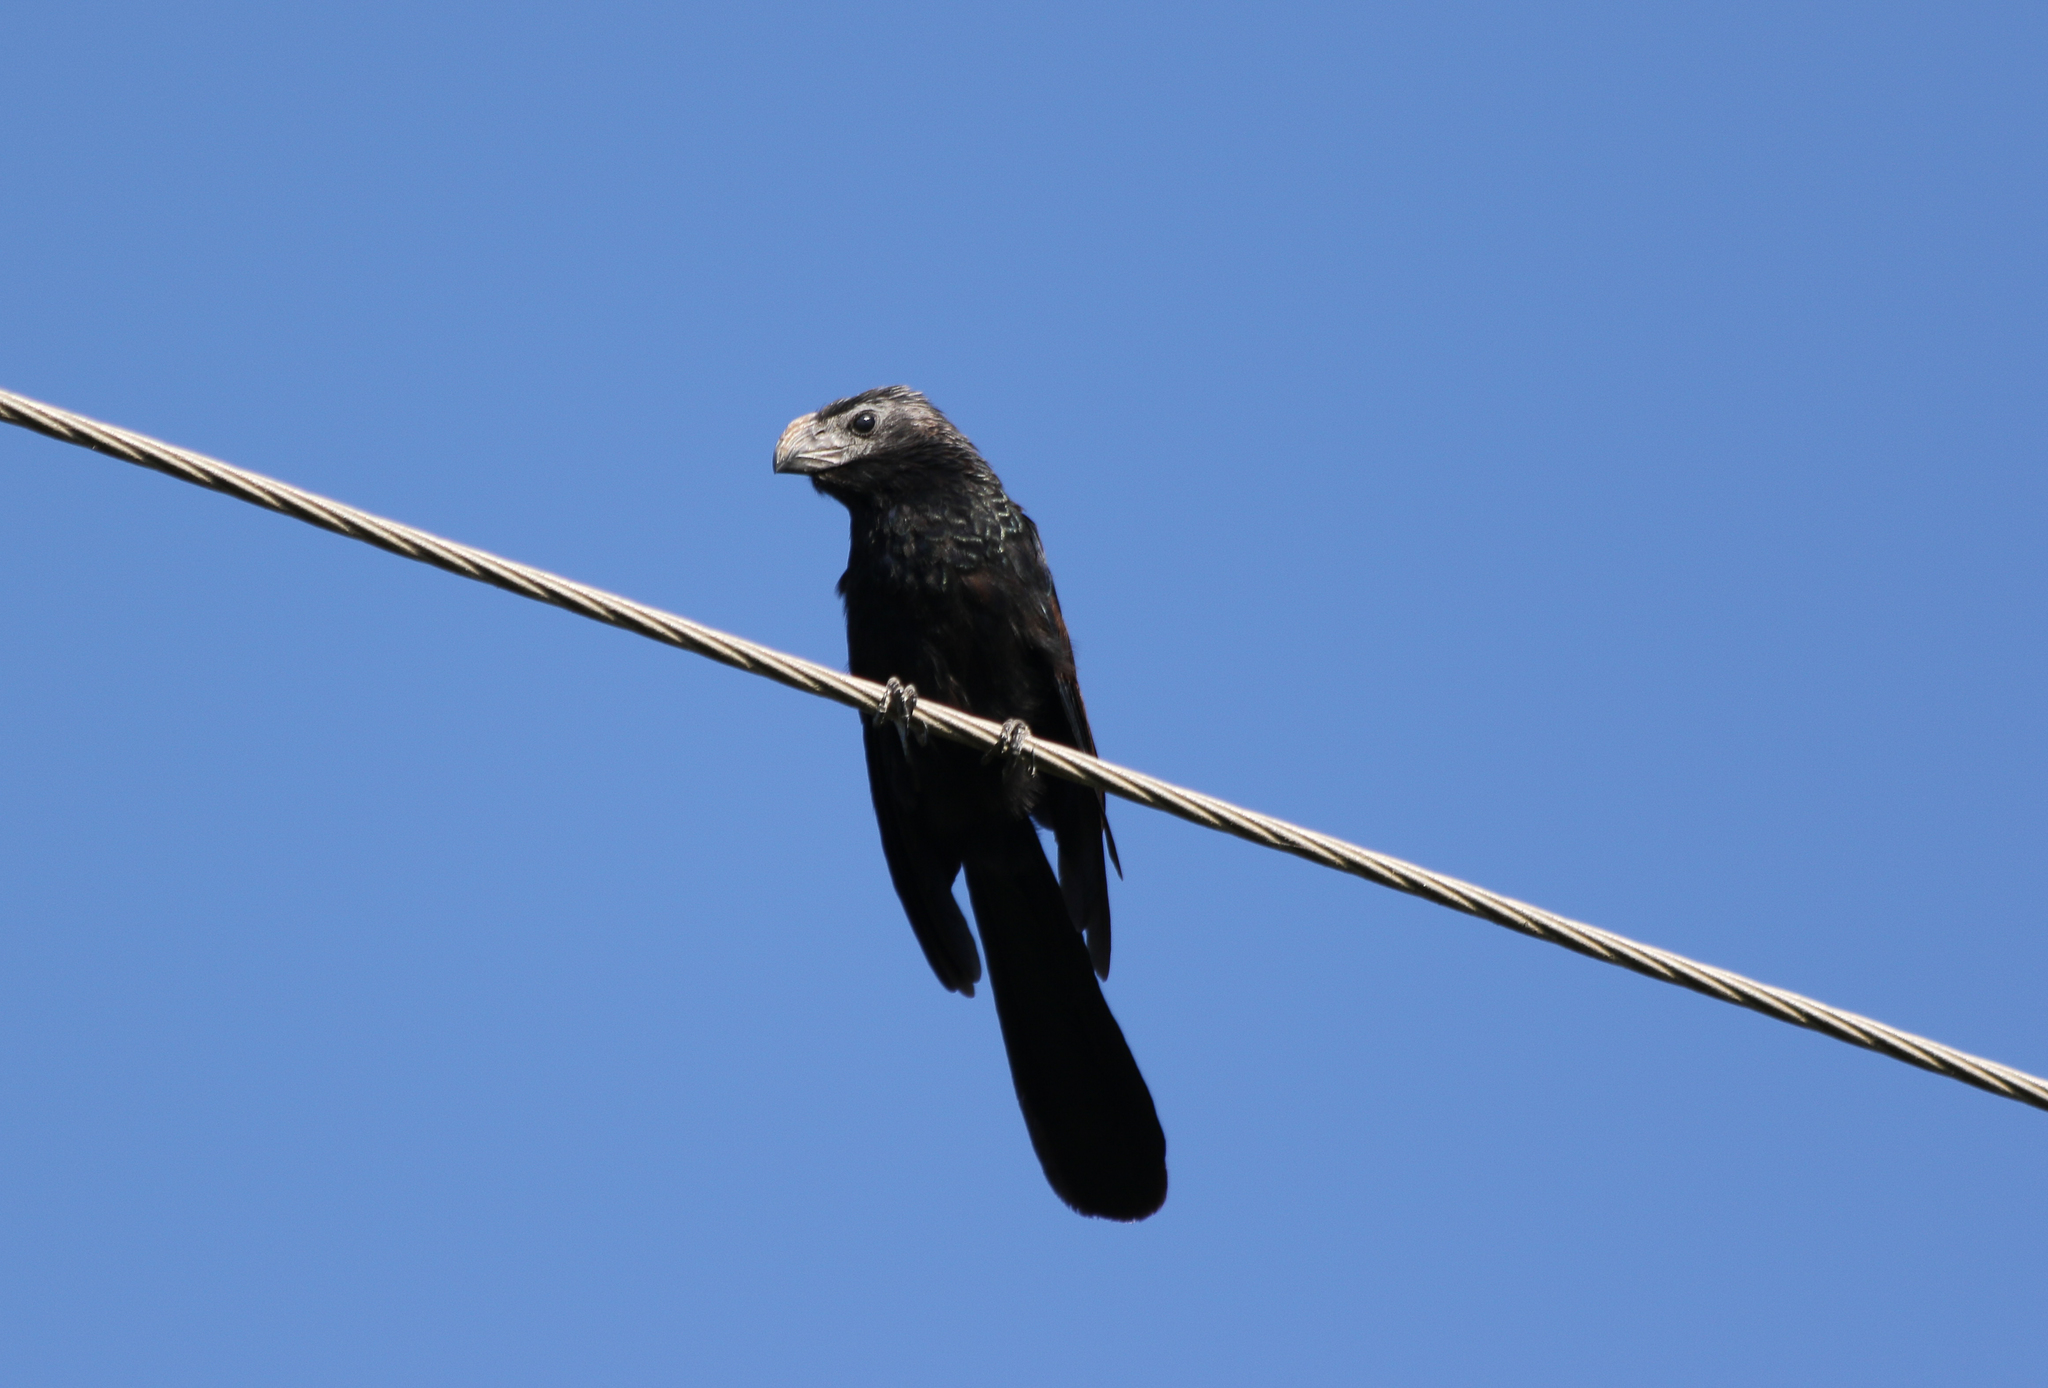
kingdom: Animalia
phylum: Chordata
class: Aves
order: Cuculiformes
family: Cuculidae
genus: Crotophaga
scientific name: Crotophaga sulcirostris
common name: Groove-billed ani
